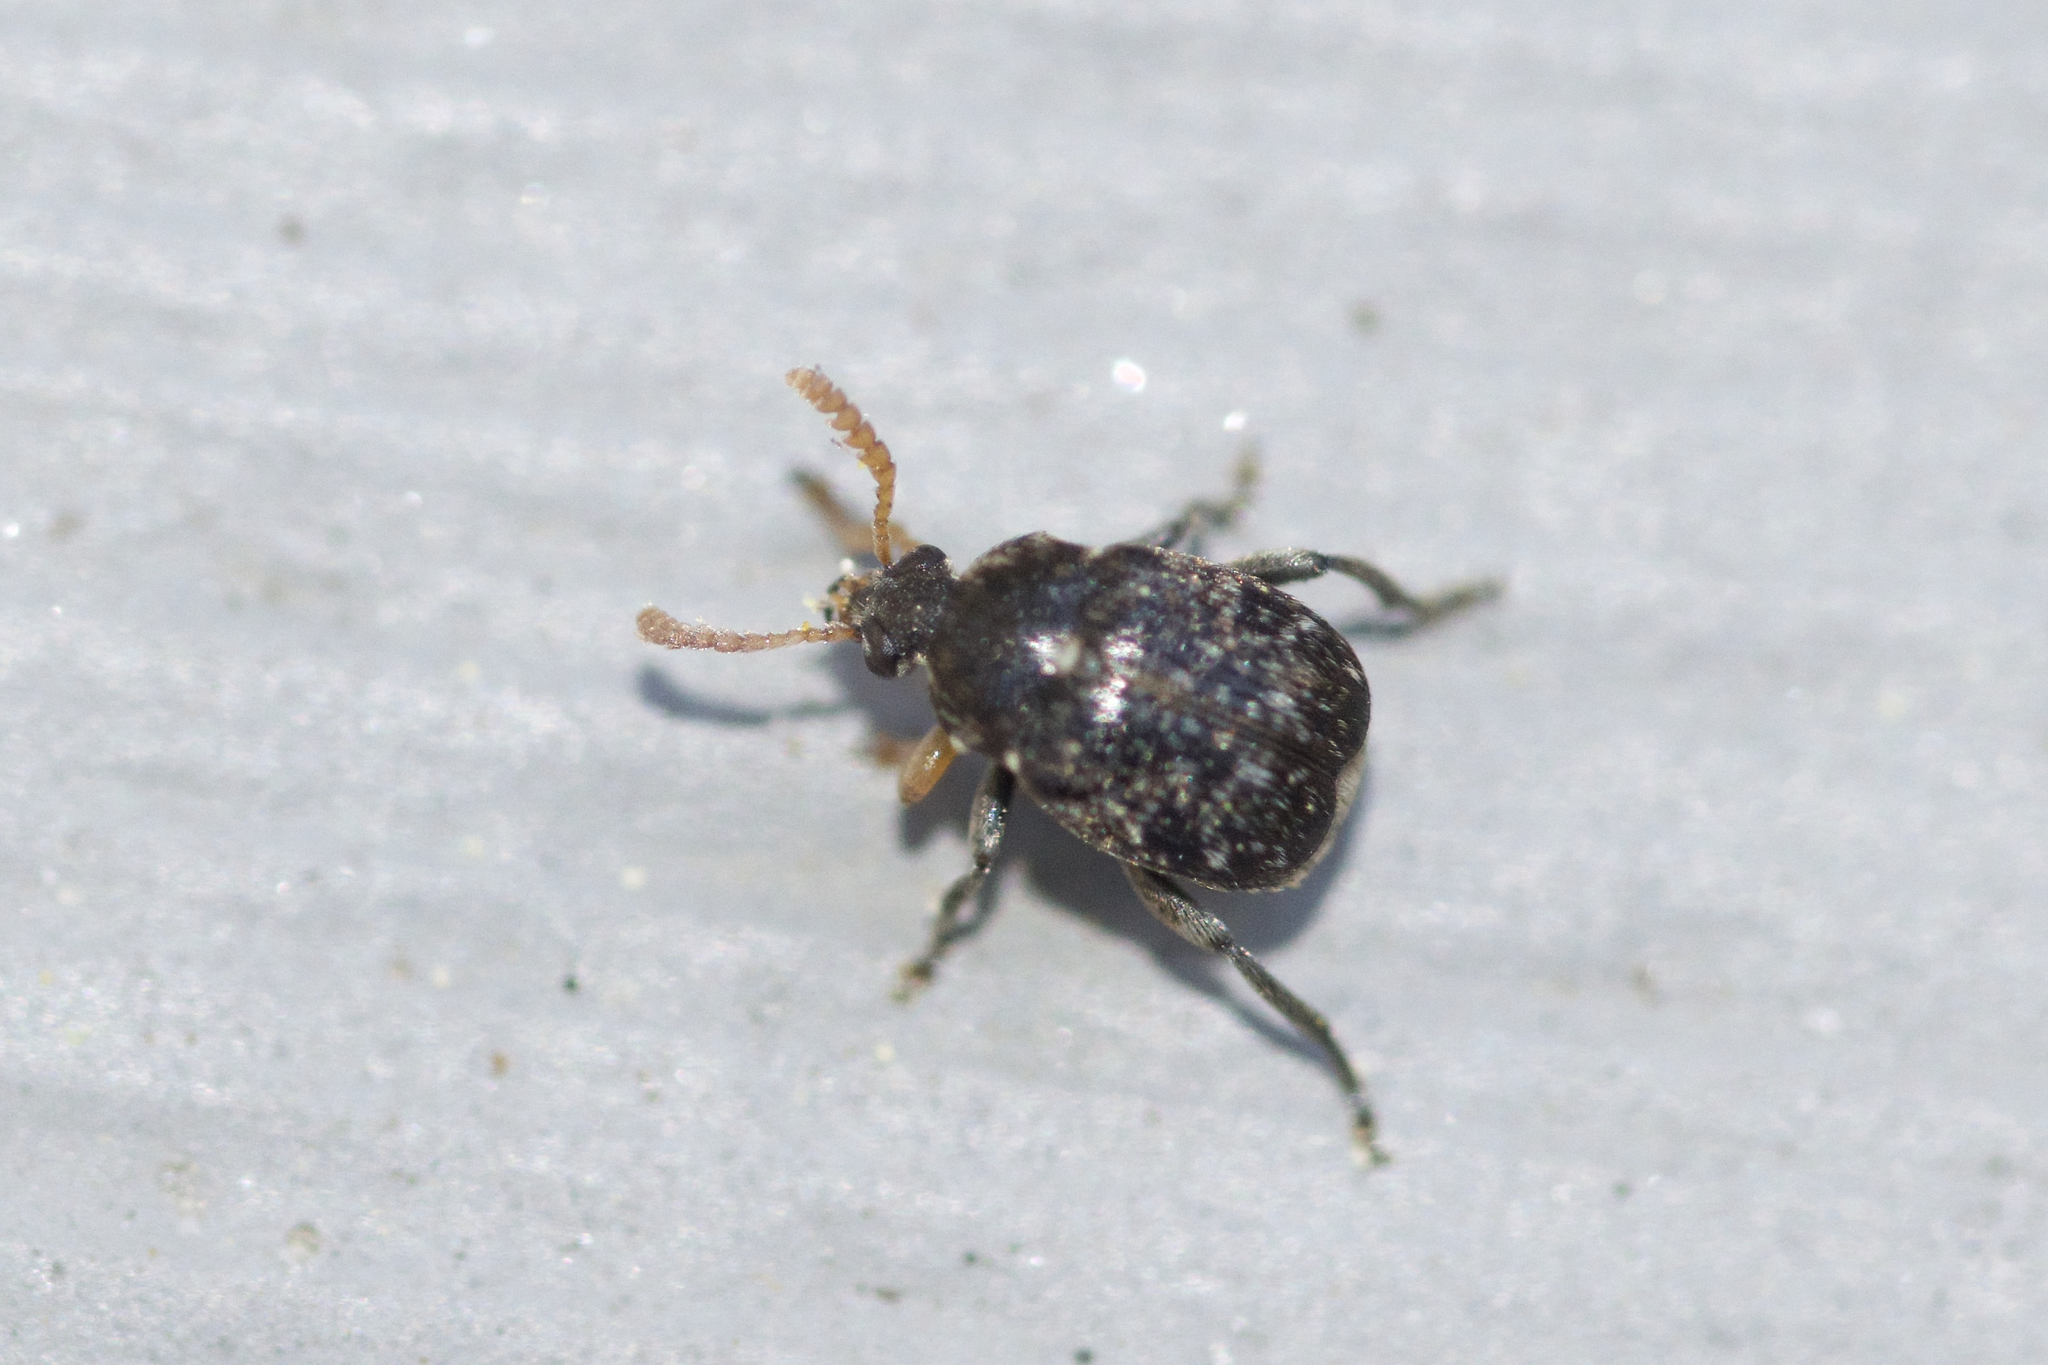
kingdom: Animalia
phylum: Arthropoda
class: Insecta
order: Coleoptera
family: Chrysomelidae
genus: Bruchus
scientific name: Bruchus brachialis
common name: Vetch bruchid
